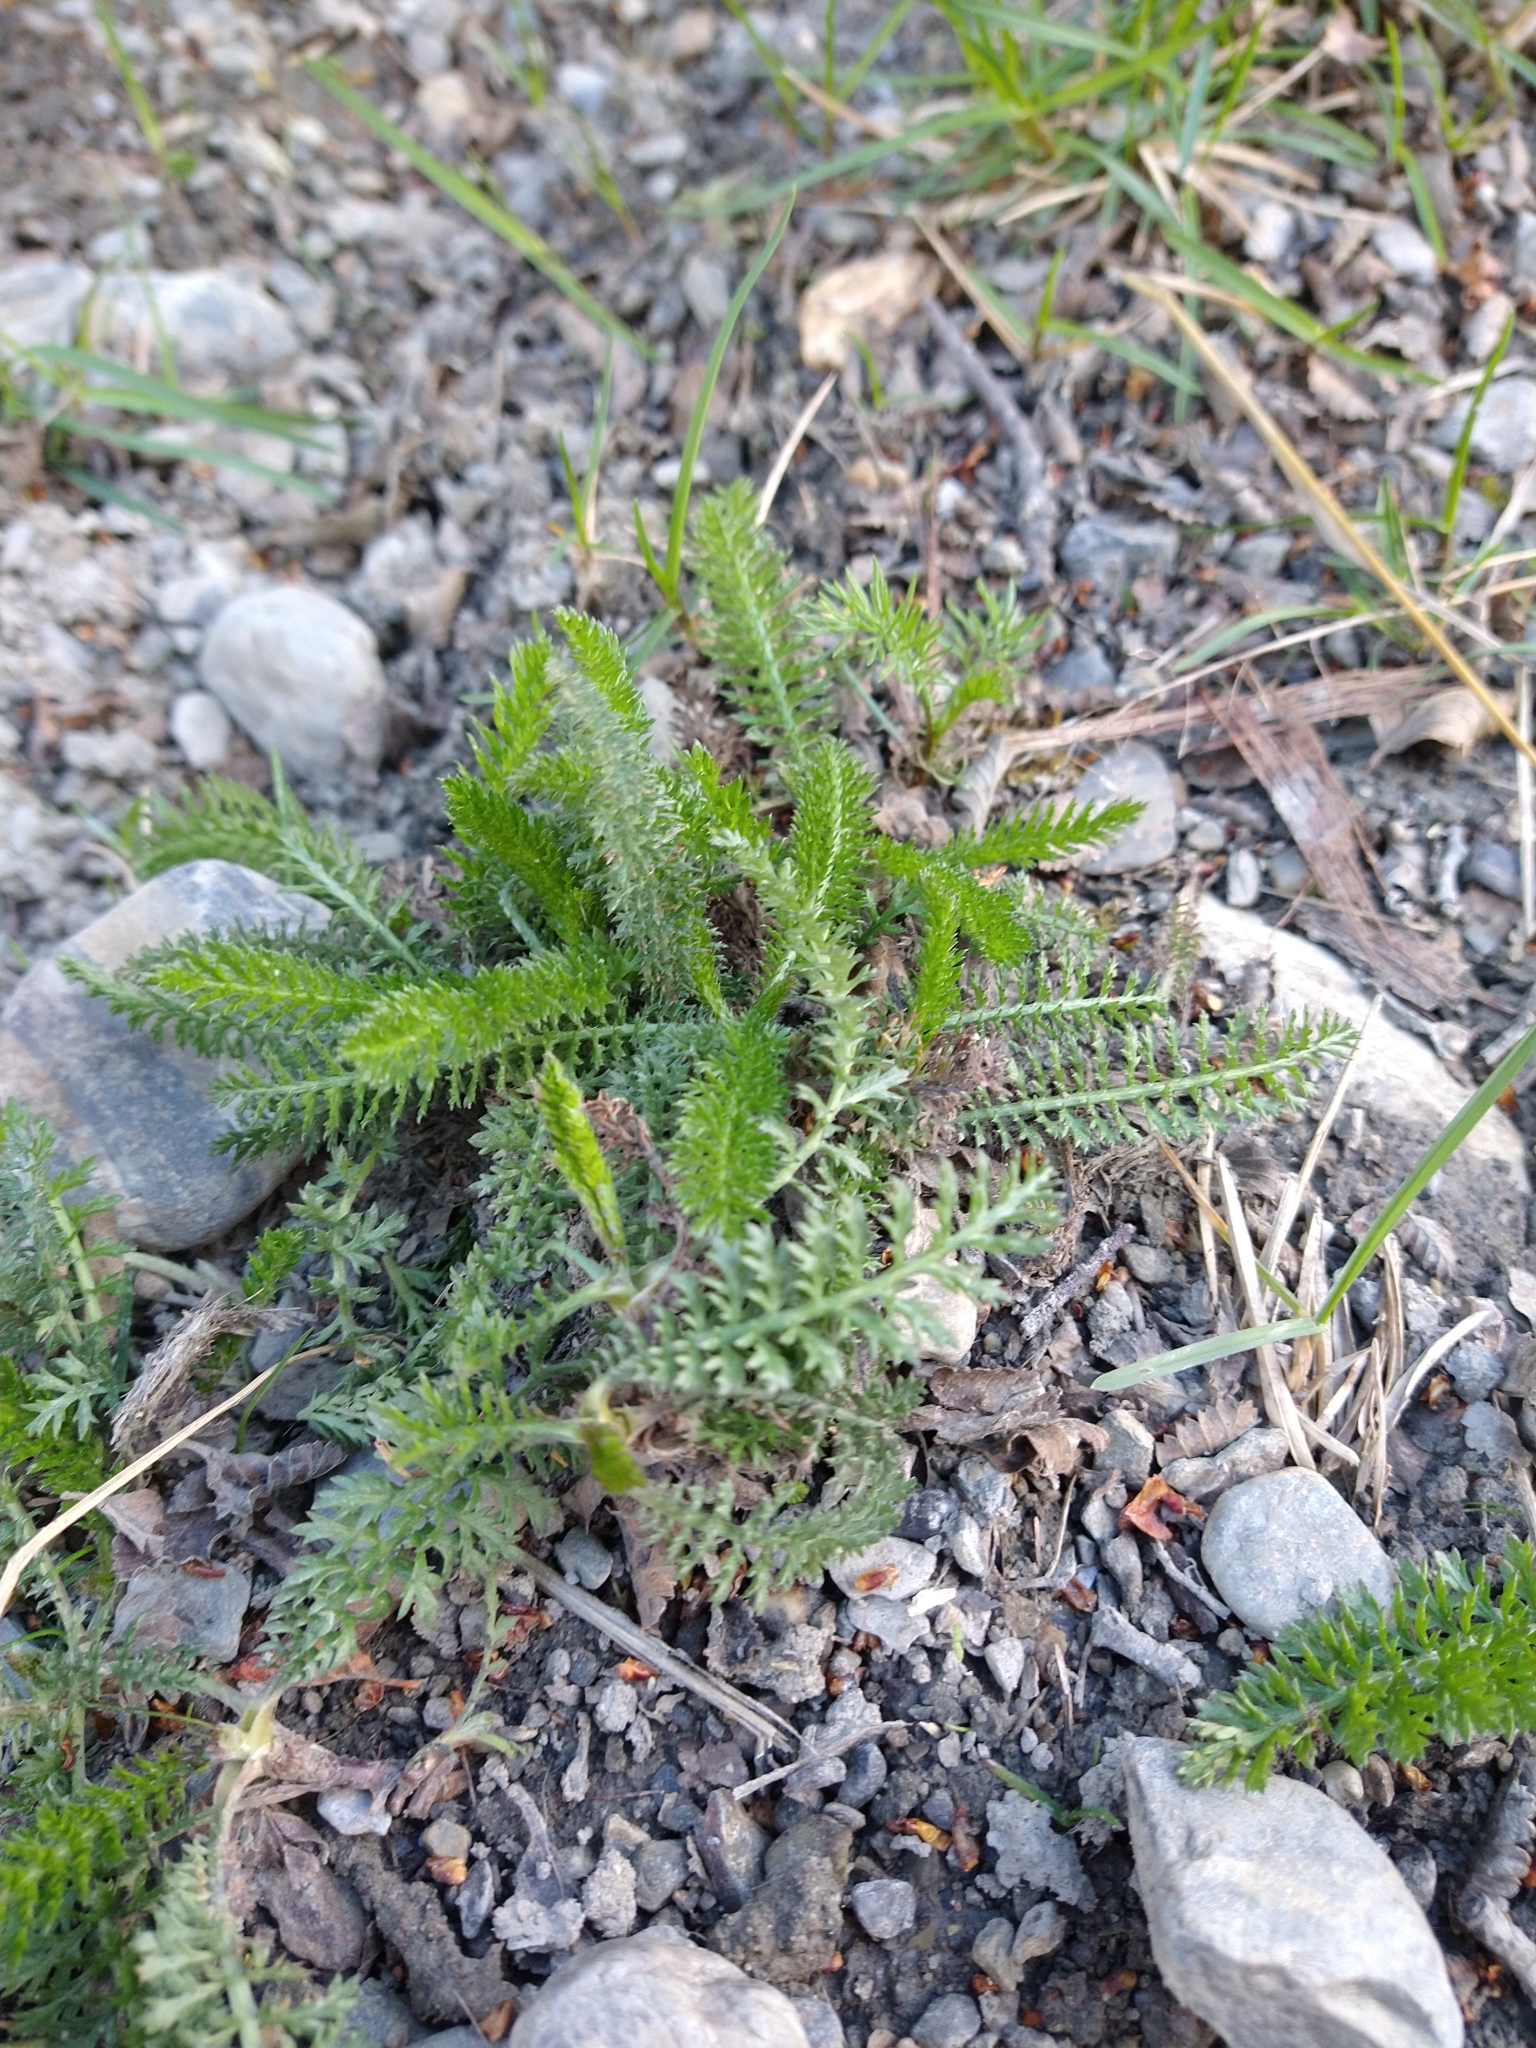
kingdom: Plantae
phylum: Tracheophyta
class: Magnoliopsida
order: Asterales
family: Asteraceae
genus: Achillea
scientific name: Achillea millefolium
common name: Yarrow
